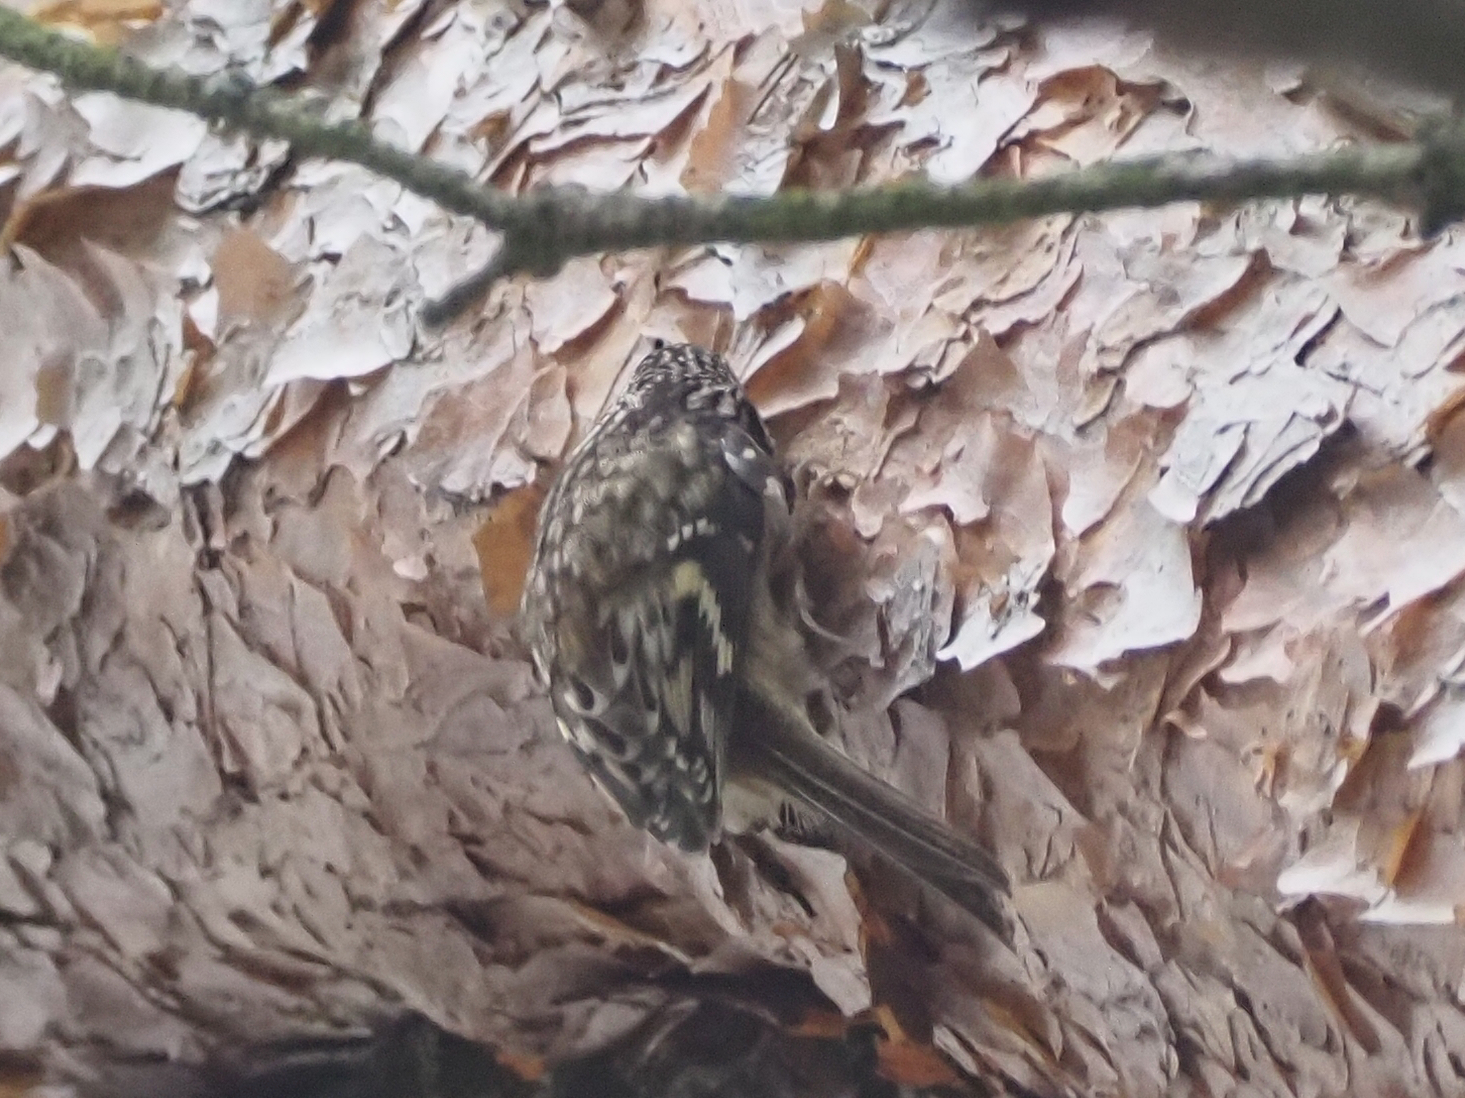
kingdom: Animalia
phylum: Chordata
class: Aves
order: Passeriformes
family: Certhiidae
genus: Certhia
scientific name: Certhia americana
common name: Brown creeper
